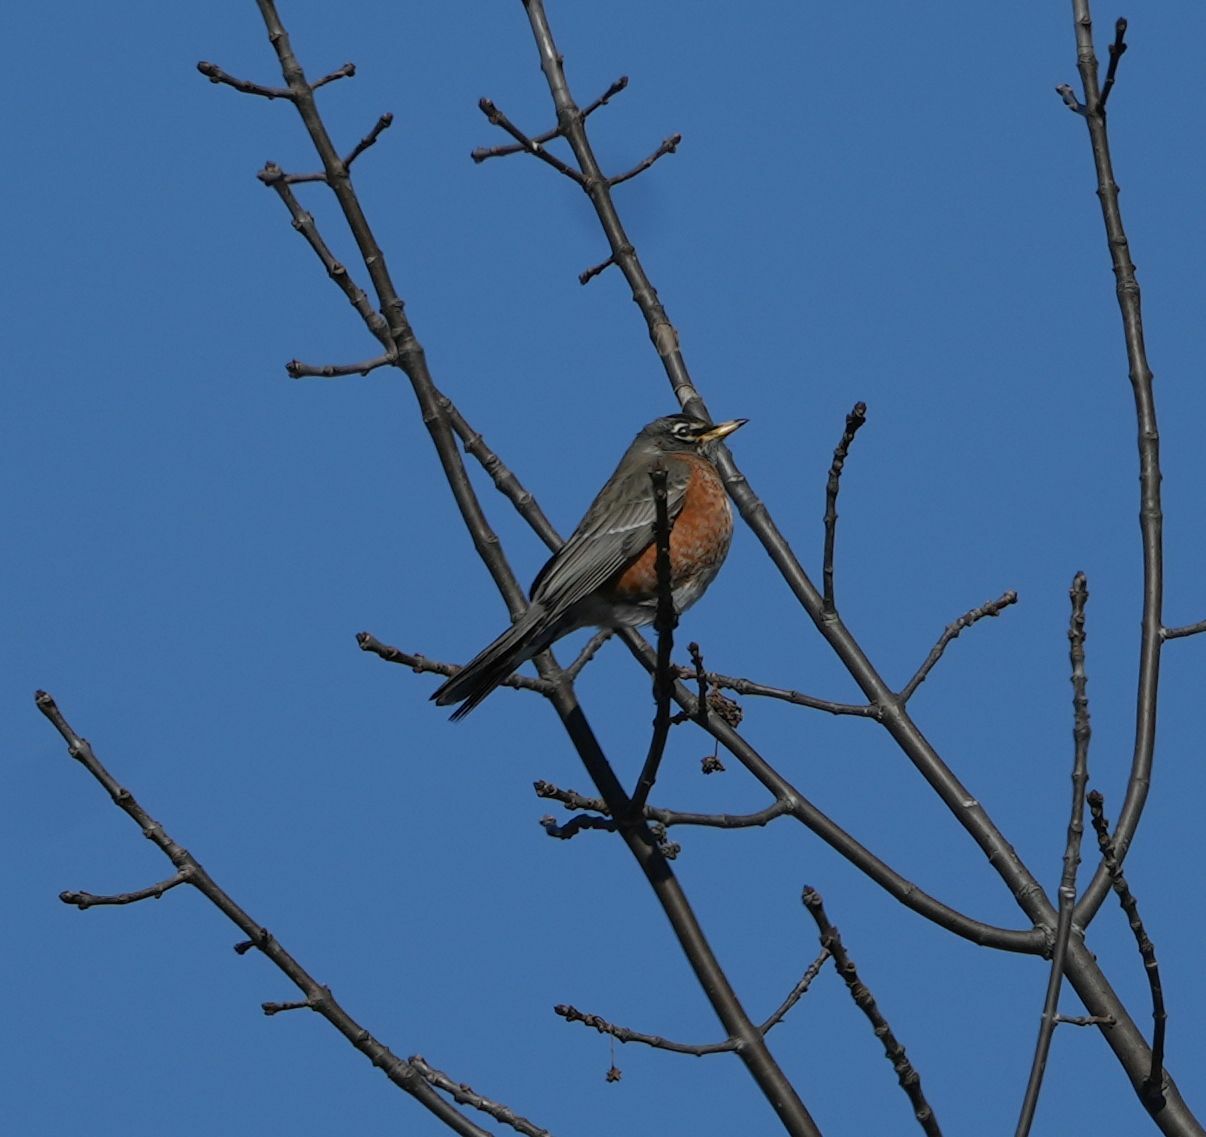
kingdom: Animalia
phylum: Chordata
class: Aves
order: Passeriformes
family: Turdidae
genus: Turdus
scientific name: Turdus migratorius
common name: American robin
